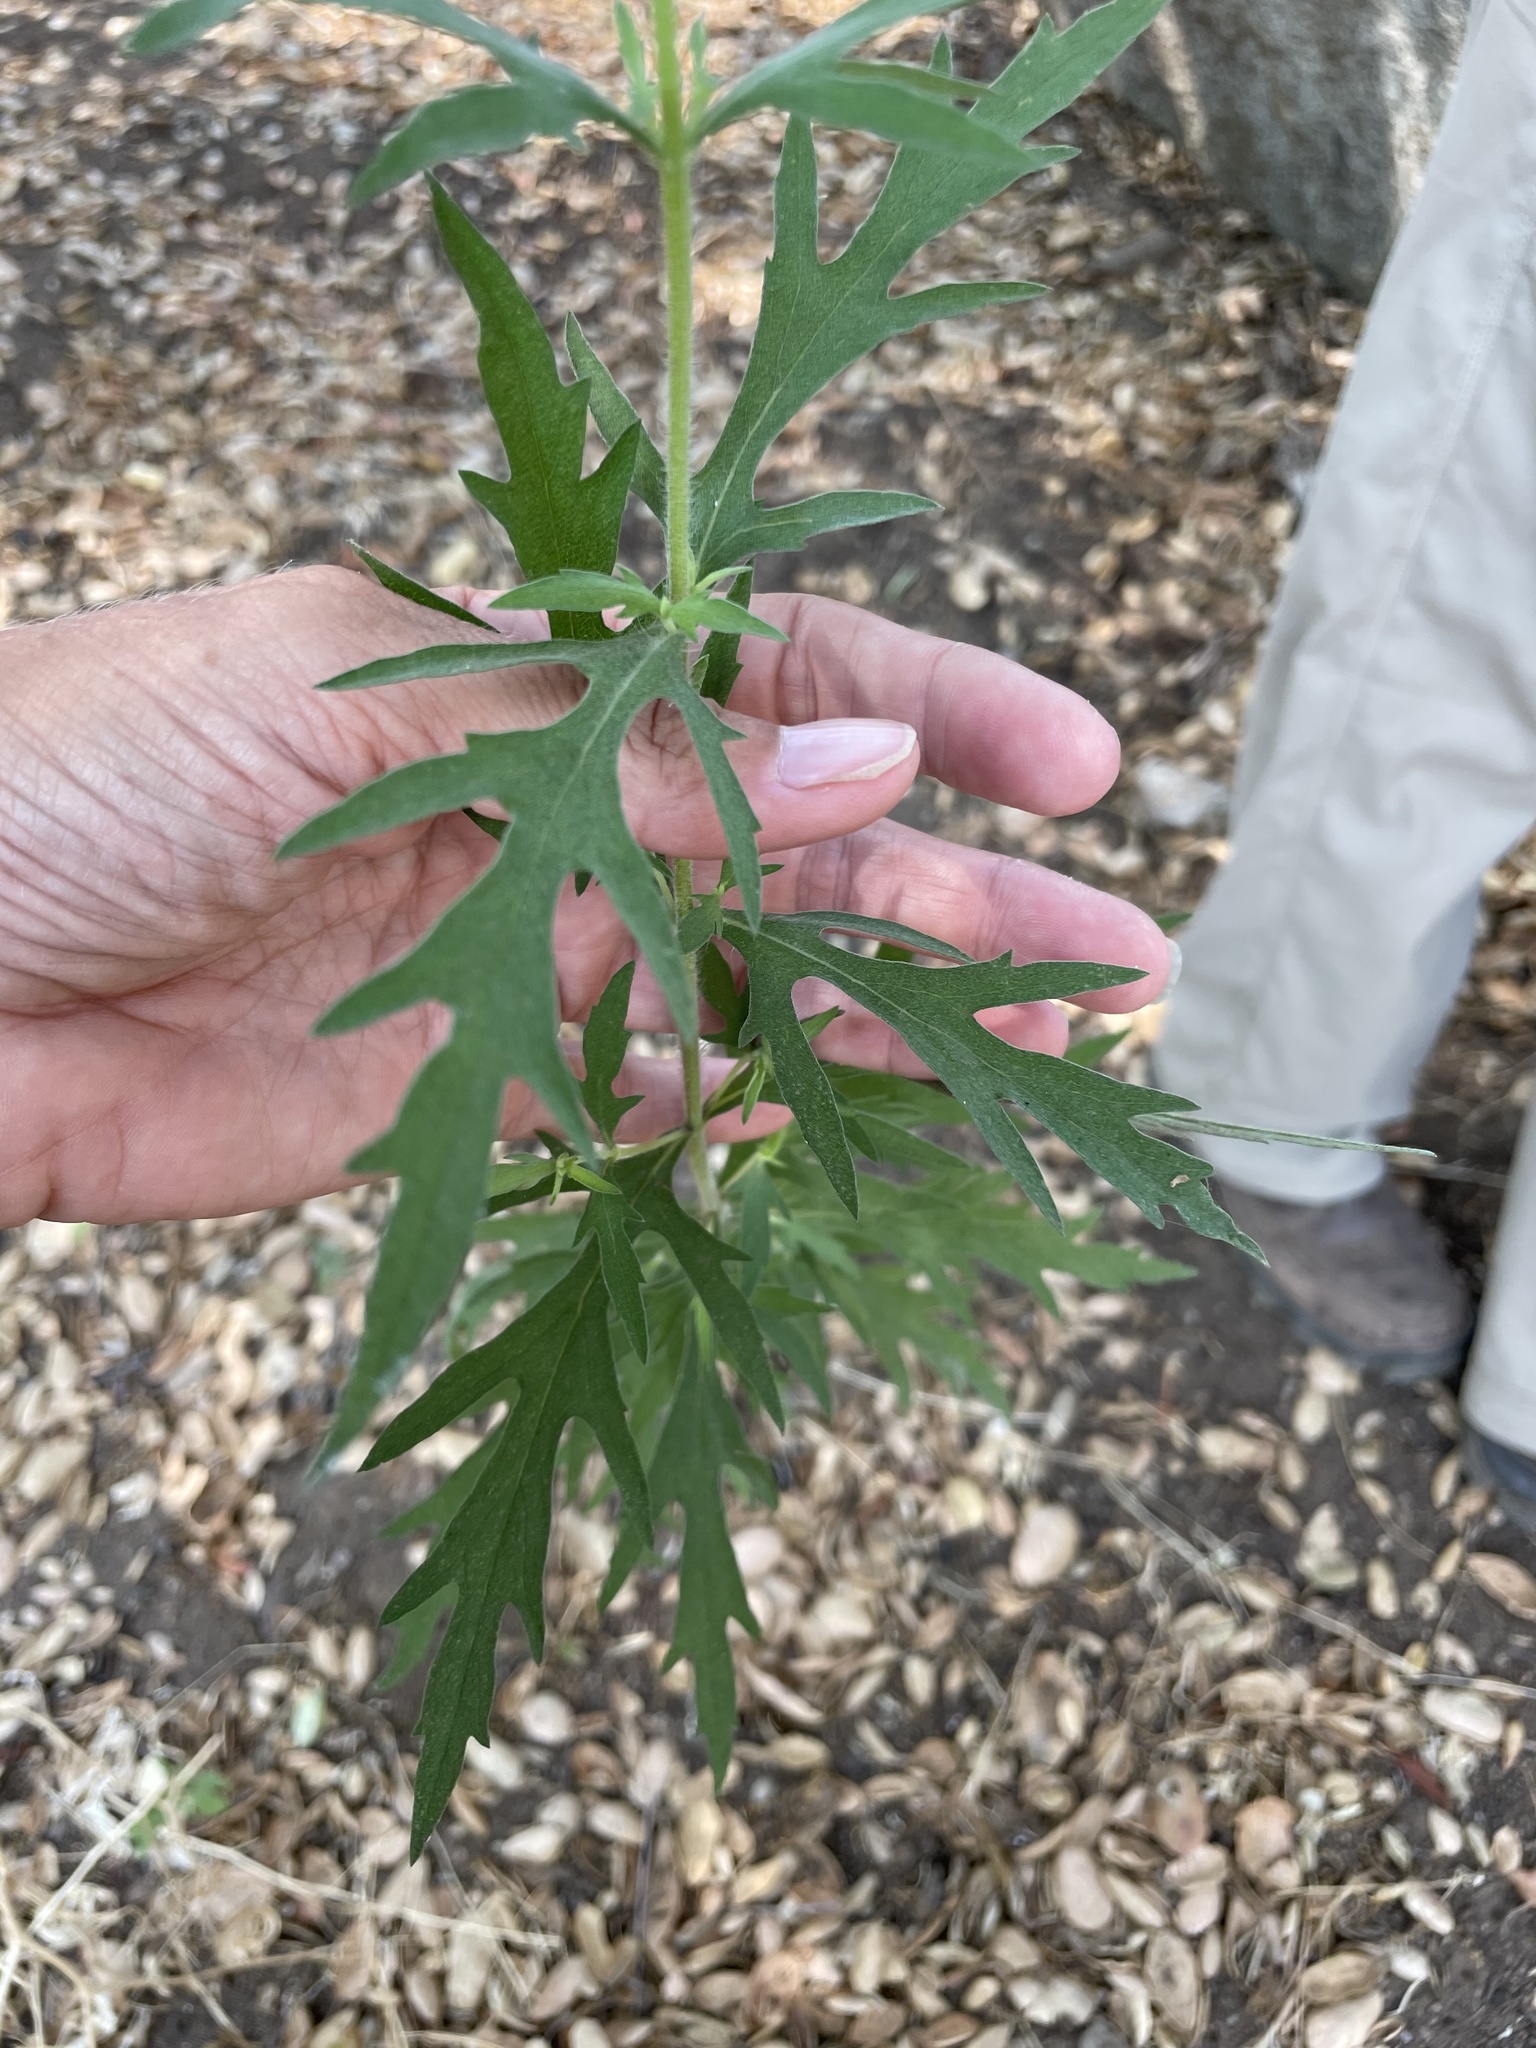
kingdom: Plantae
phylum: Tracheophyta
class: Magnoliopsida
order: Asterales
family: Asteraceae
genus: Ambrosia
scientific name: Ambrosia psilostachya
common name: Perennial ragweed
